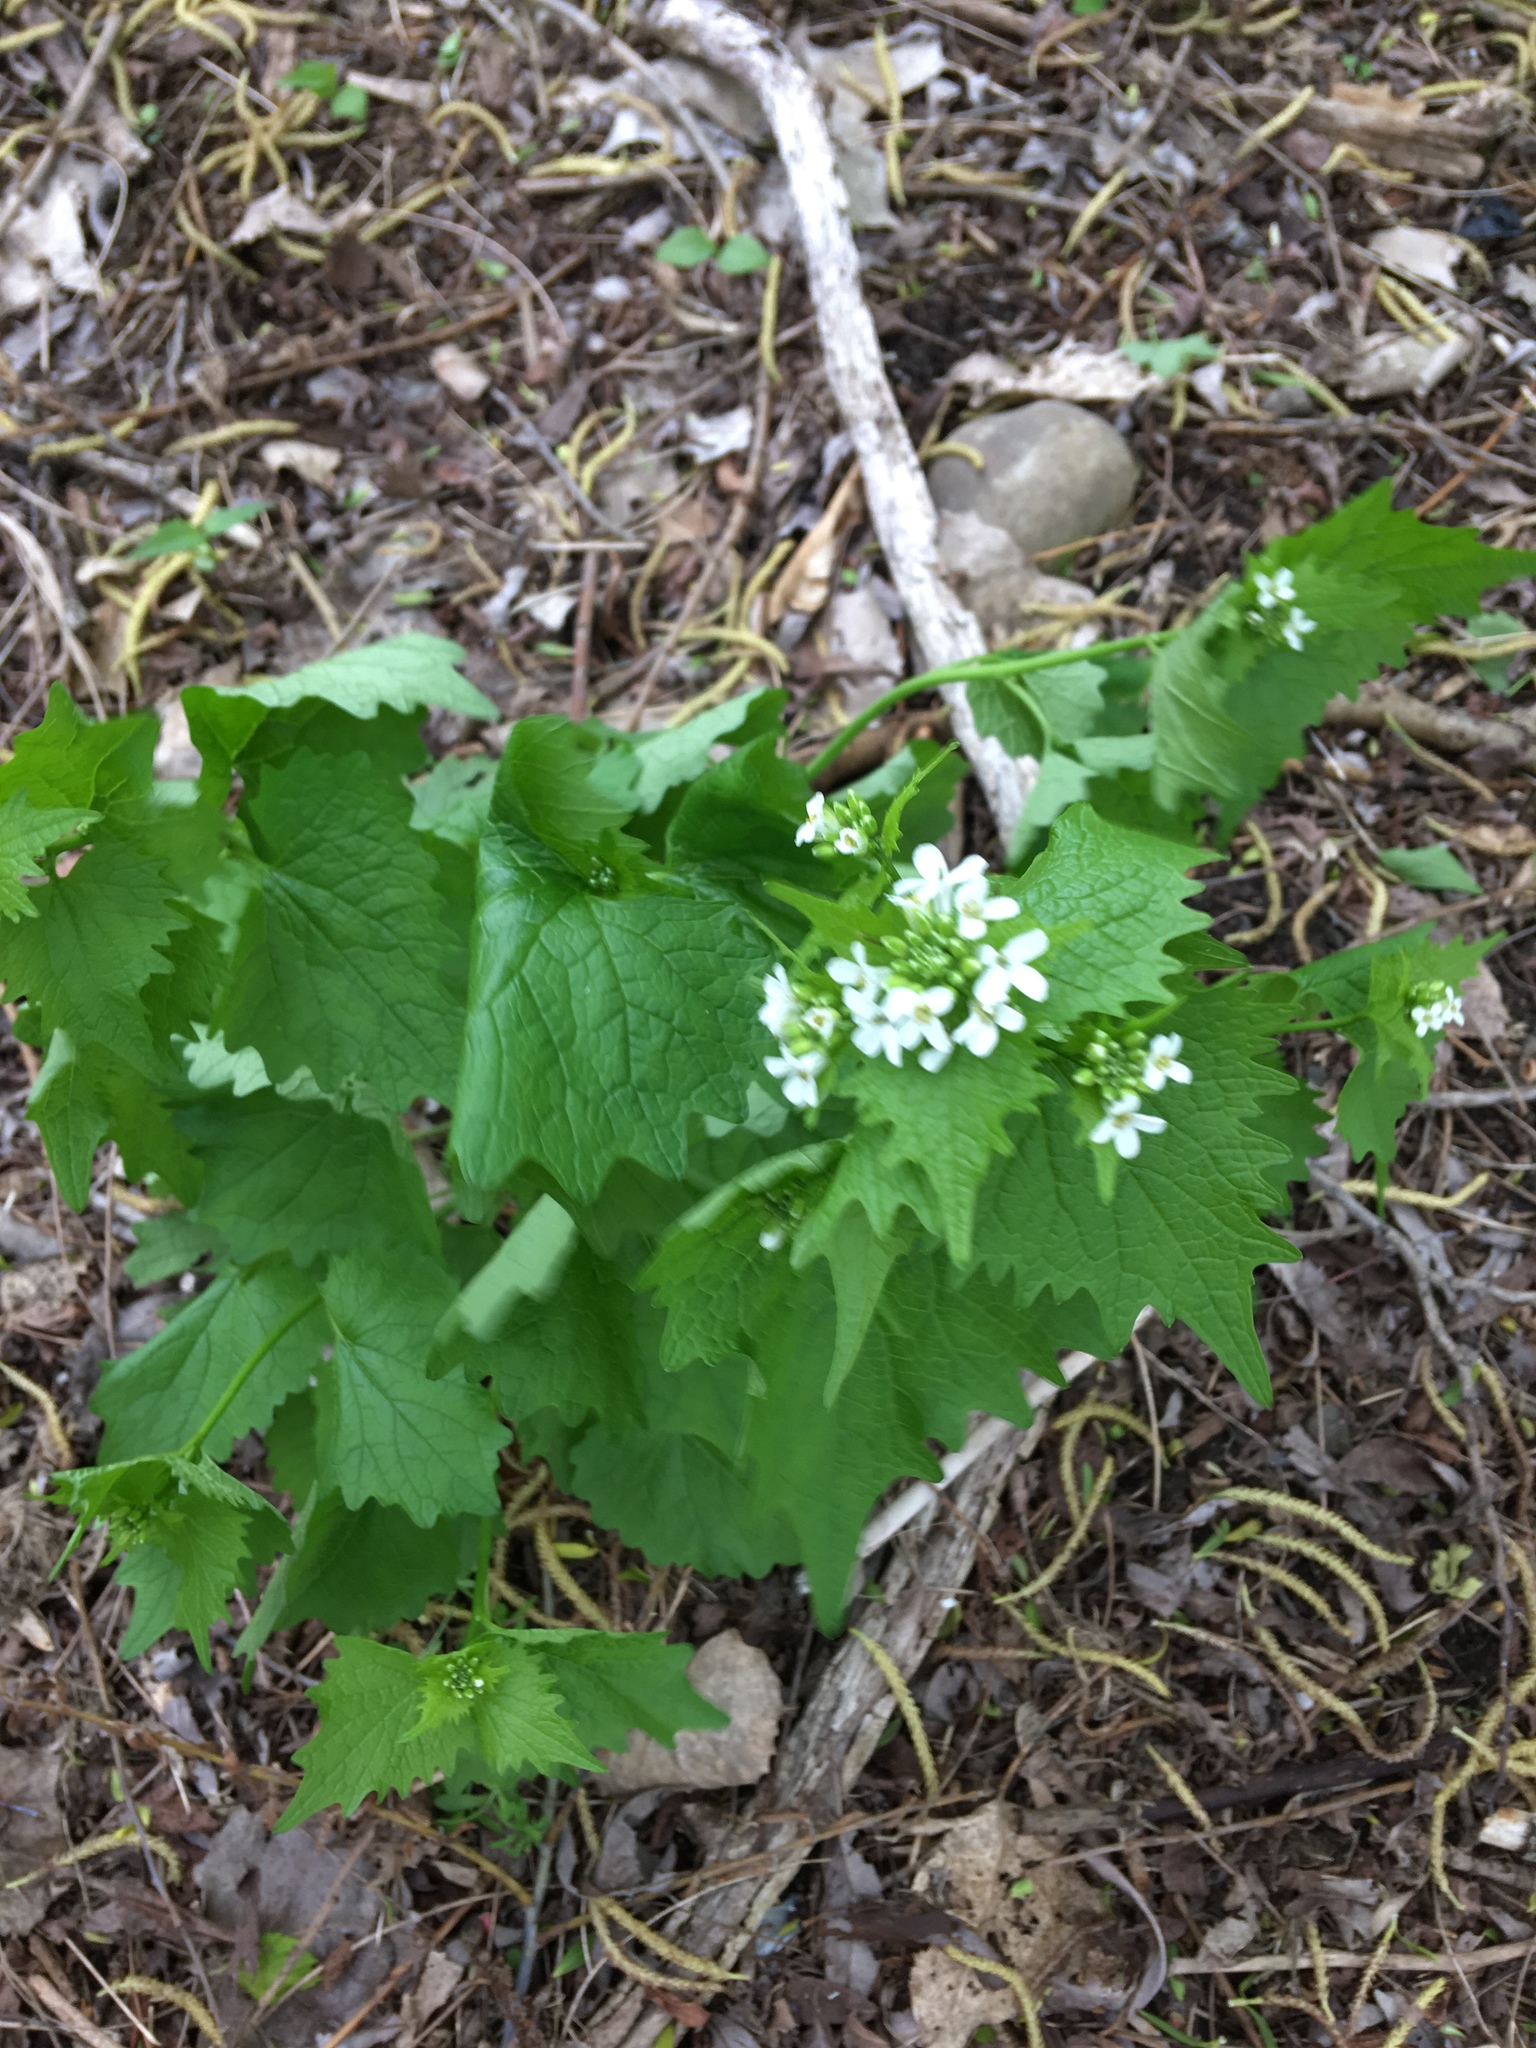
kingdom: Plantae
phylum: Tracheophyta
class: Magnoliopsida
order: Brassicales
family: Brassicaceae
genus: Alliaria
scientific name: Alliaria petiolata
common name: Garlic mustard
